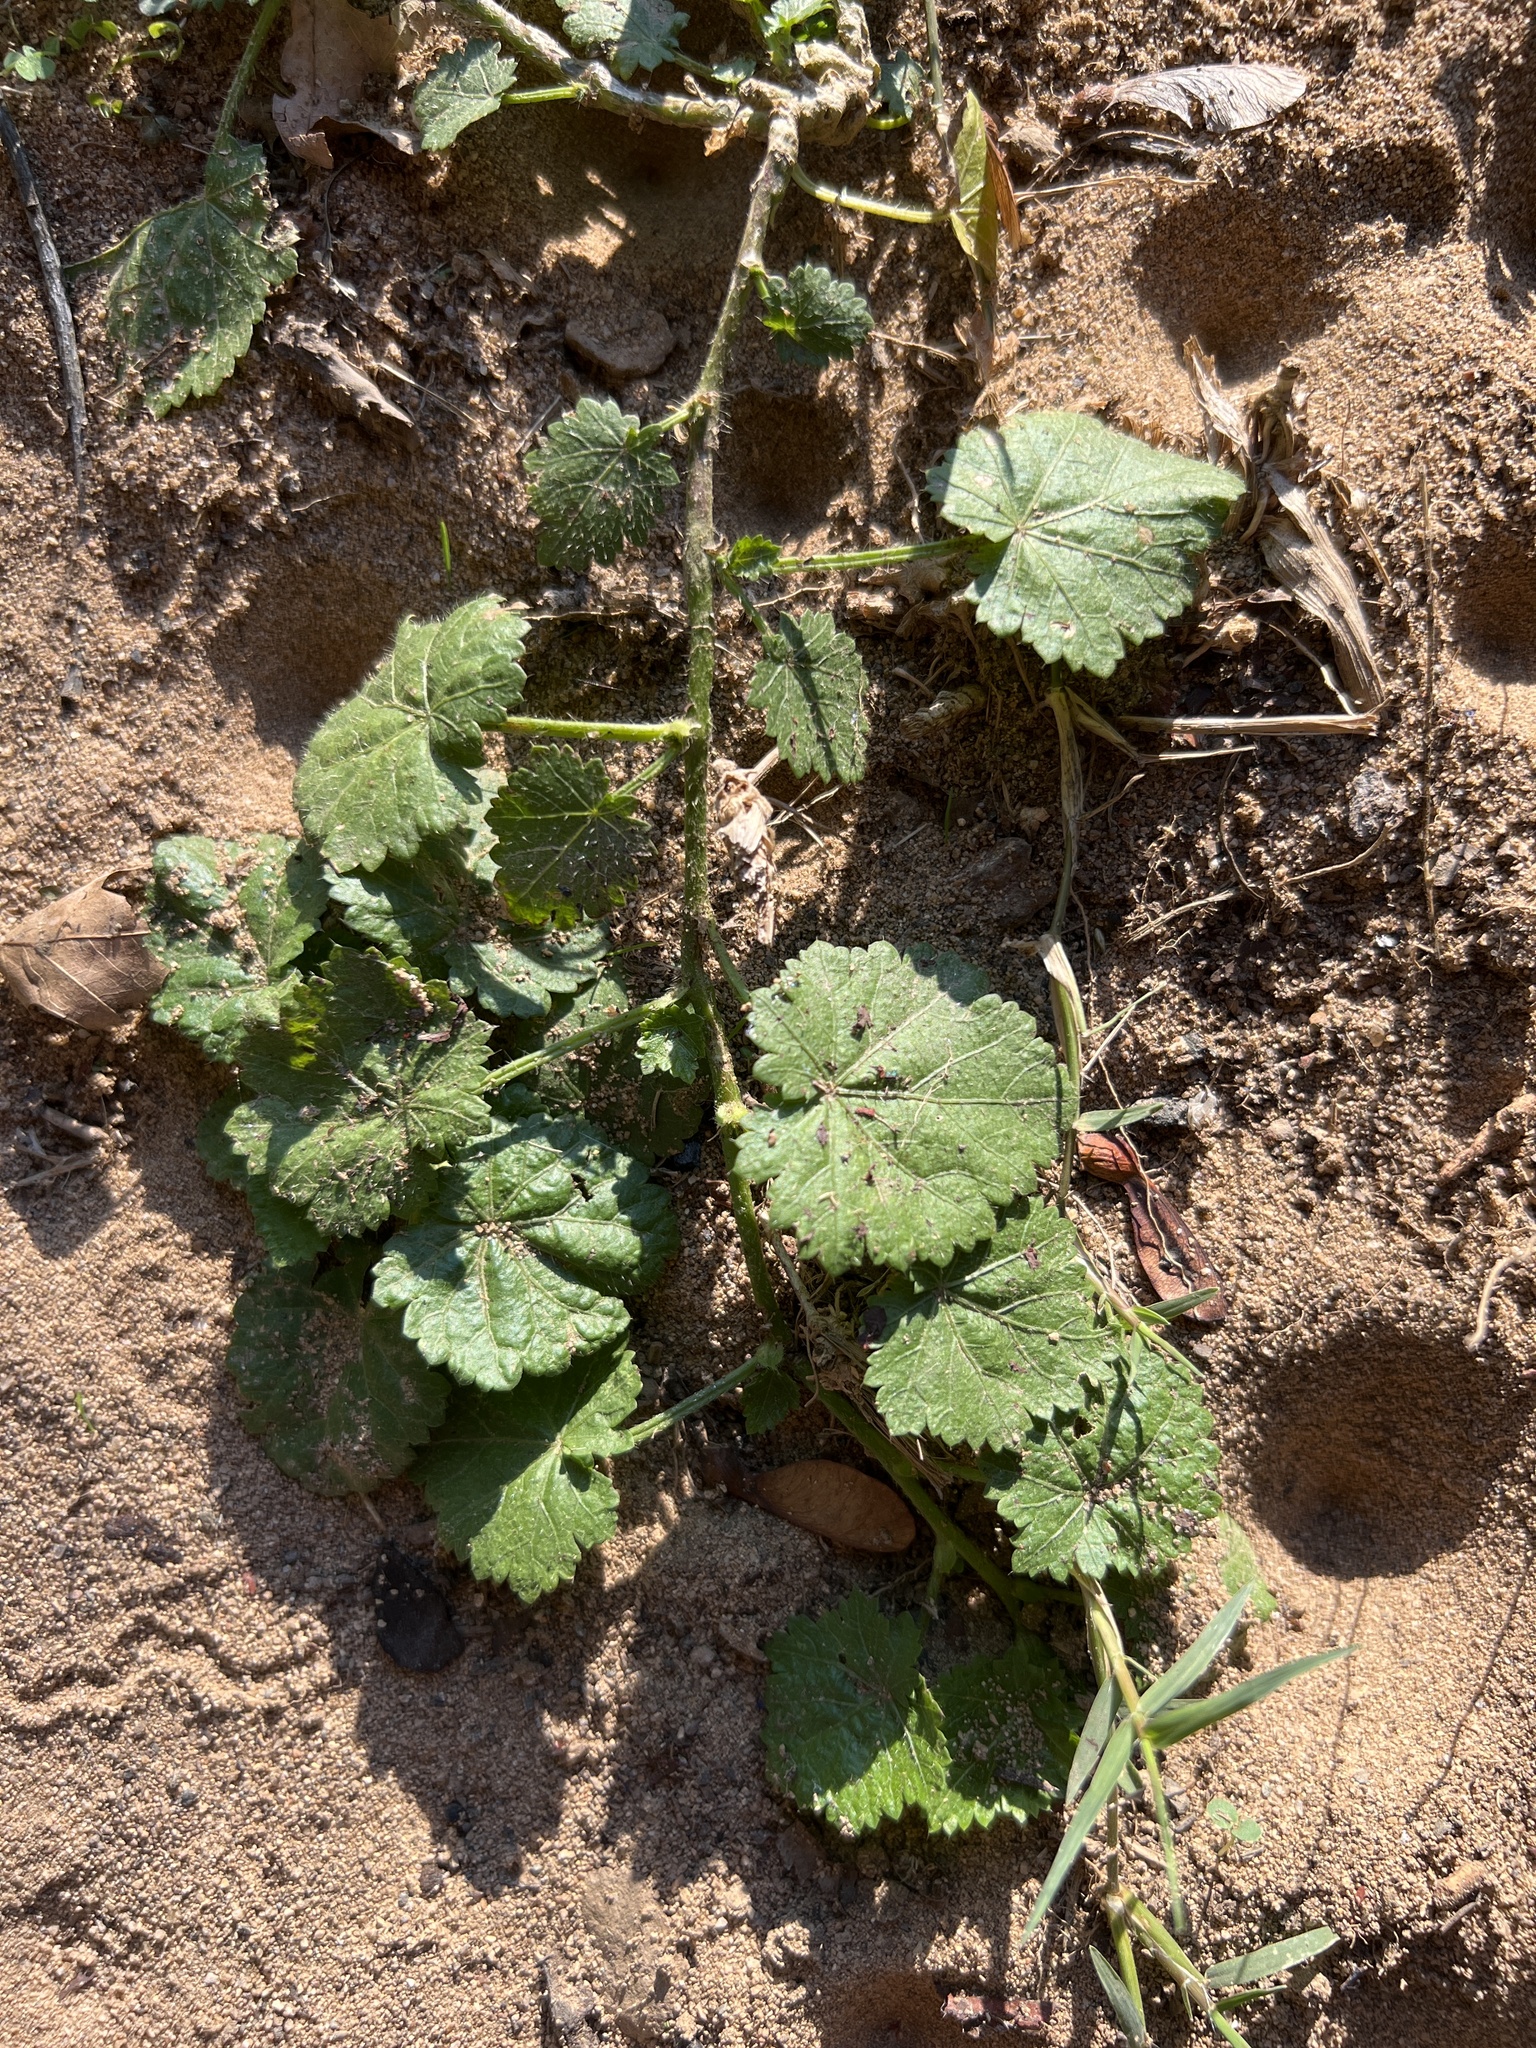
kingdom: Plantae
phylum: Tracheophyta
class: Magnoliopsida
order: Malvales
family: Malvaceae
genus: Modiola
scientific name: Modiola caroliniana
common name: Carolina bristlemallow
